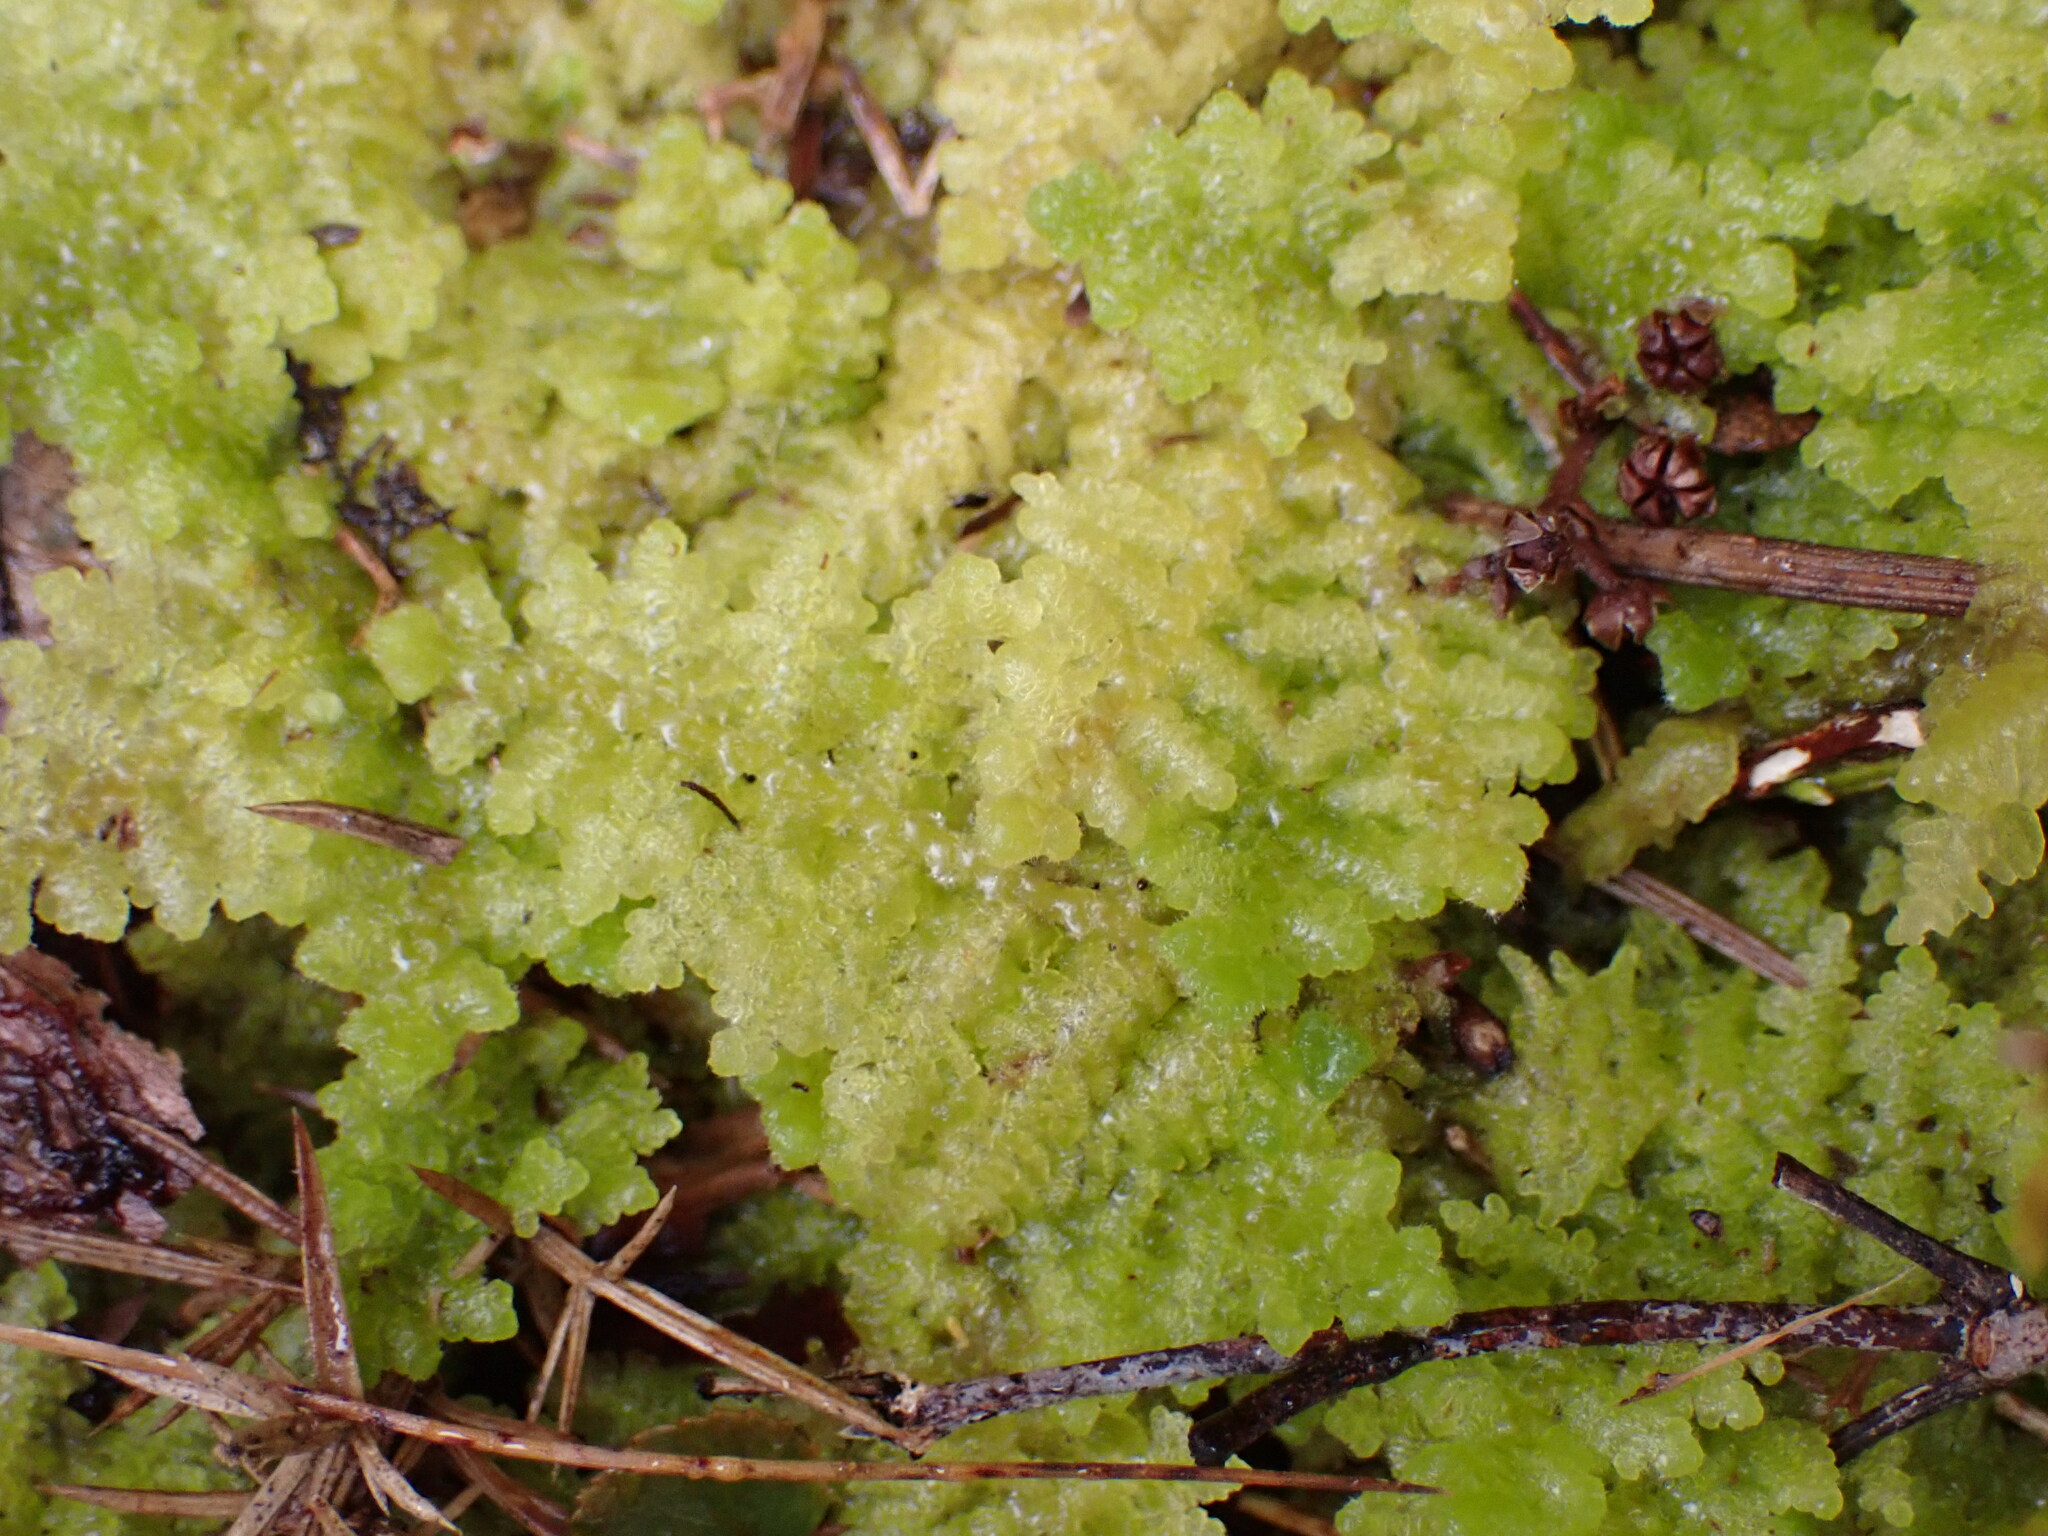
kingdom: Plantae
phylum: Marchantiophyta
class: Jungermanniopsida
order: Jungermanniales
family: Trichocoleaceae
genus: Trichocolea
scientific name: Trichocolea mollissima
